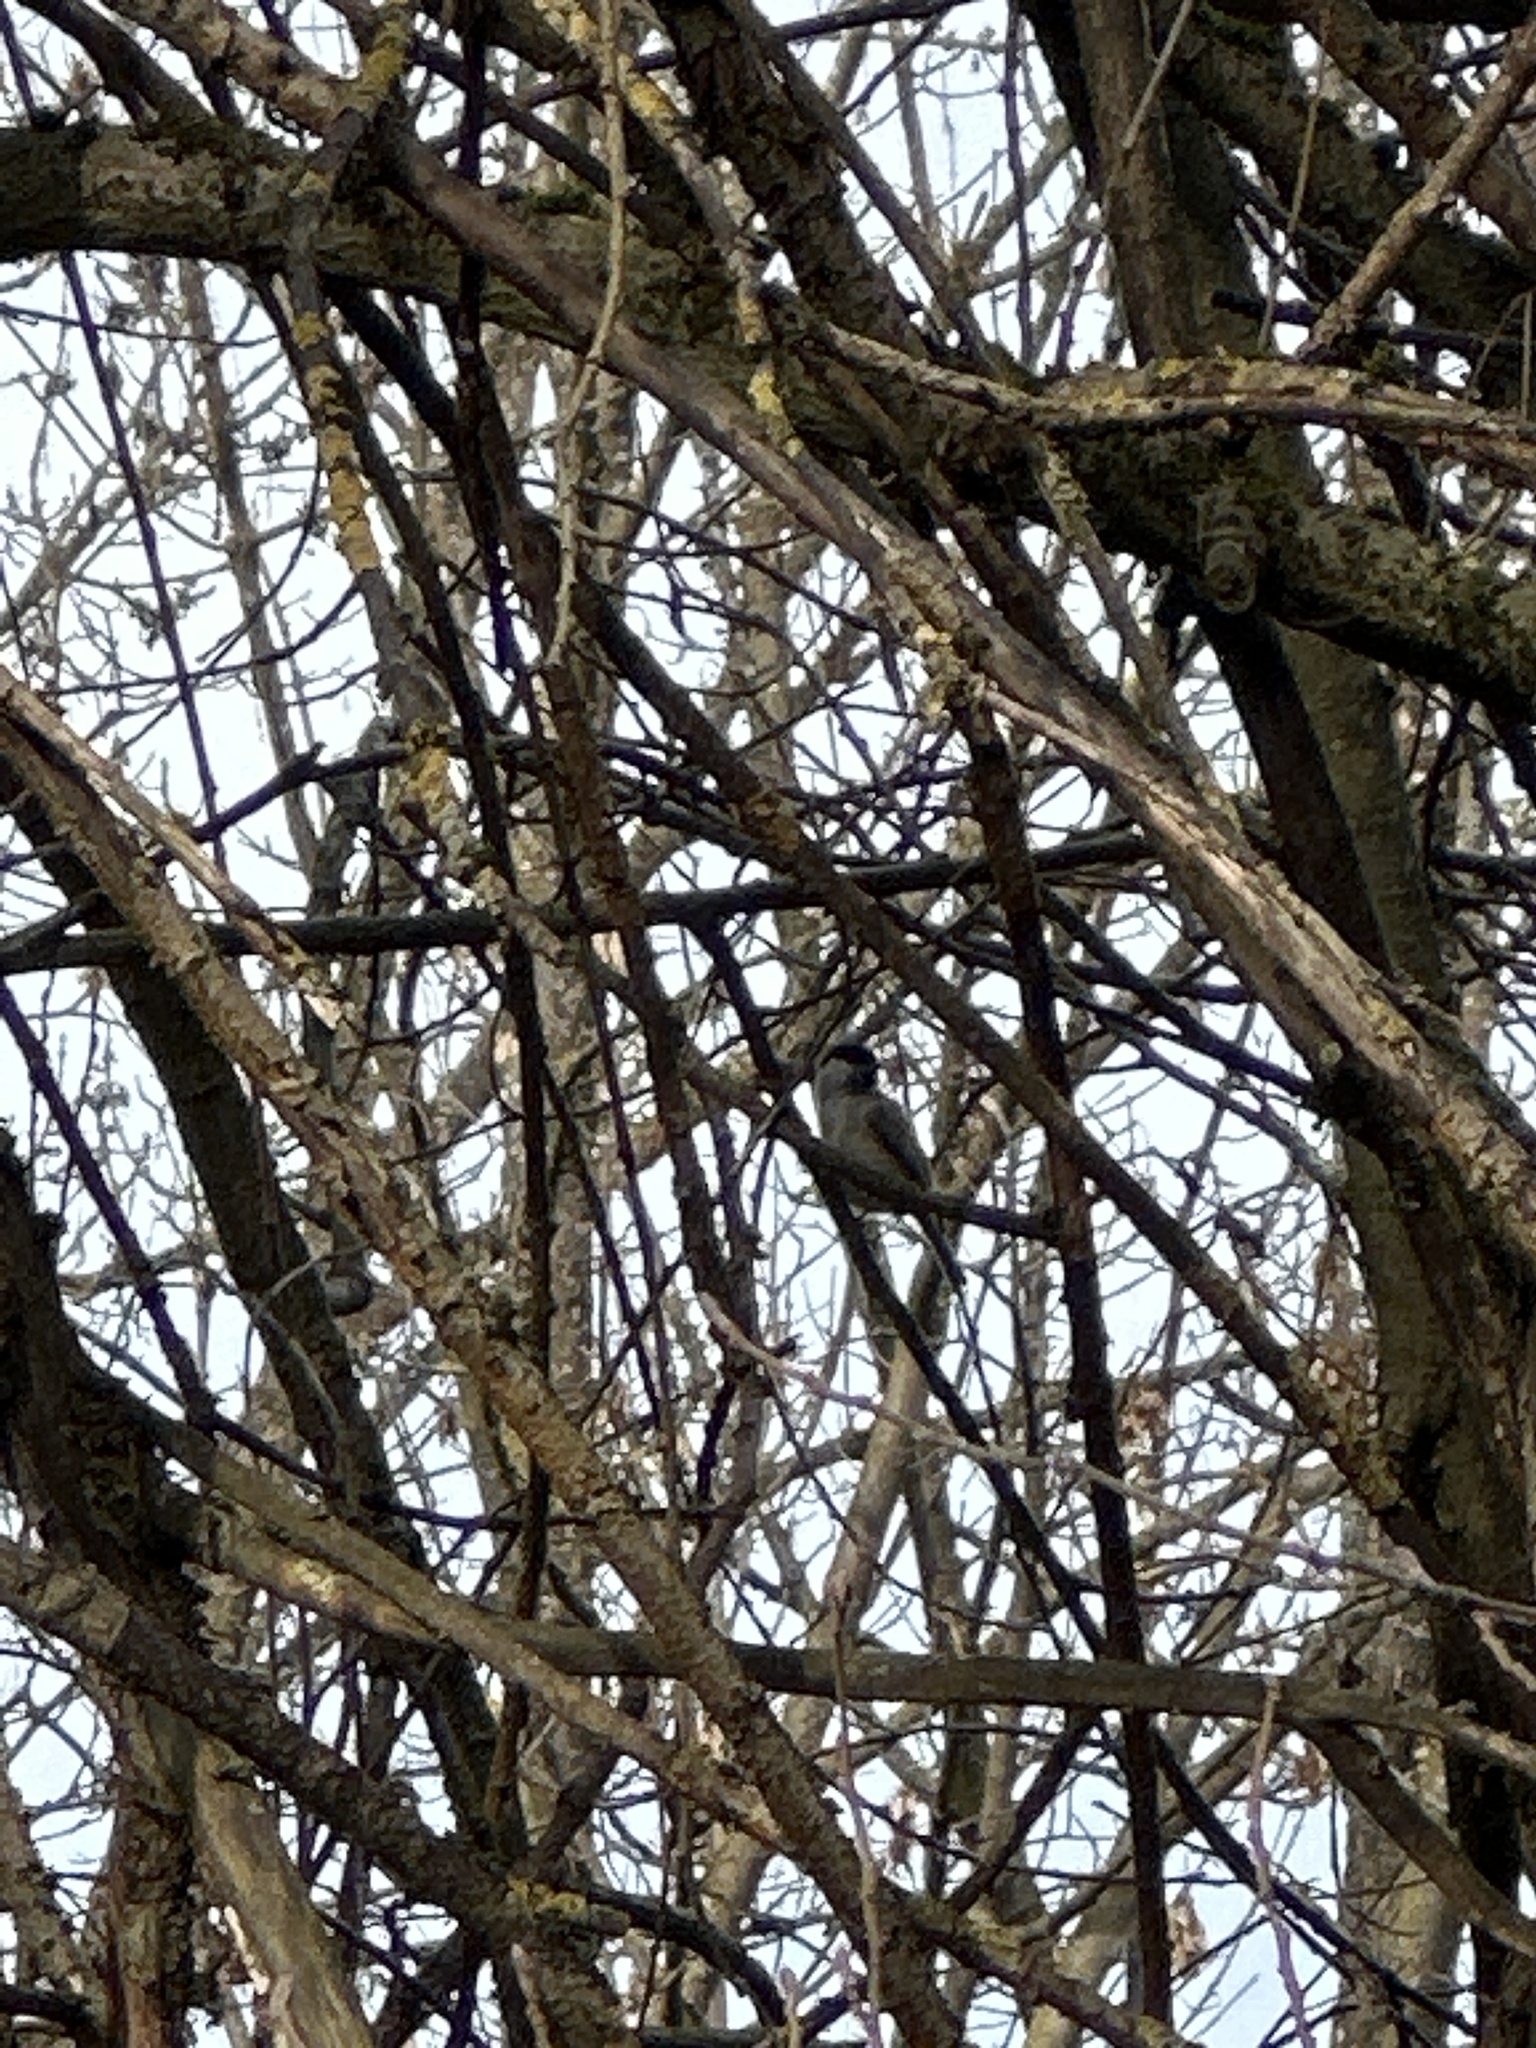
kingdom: Animalia
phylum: Chordata
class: Aves
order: Passeriformes
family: Paridae
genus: Poecile
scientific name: Poecile palustris
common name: Marsh tit
